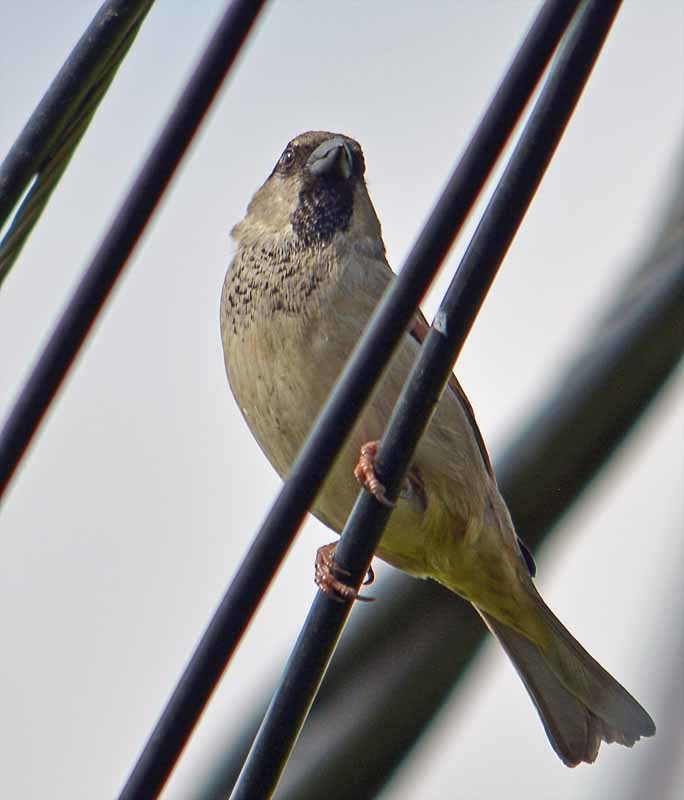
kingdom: Animalia
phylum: Chordata
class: Aves
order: Passeriformes
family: Passeridae
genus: Passer
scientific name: Passer domesticus
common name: House sparrow
